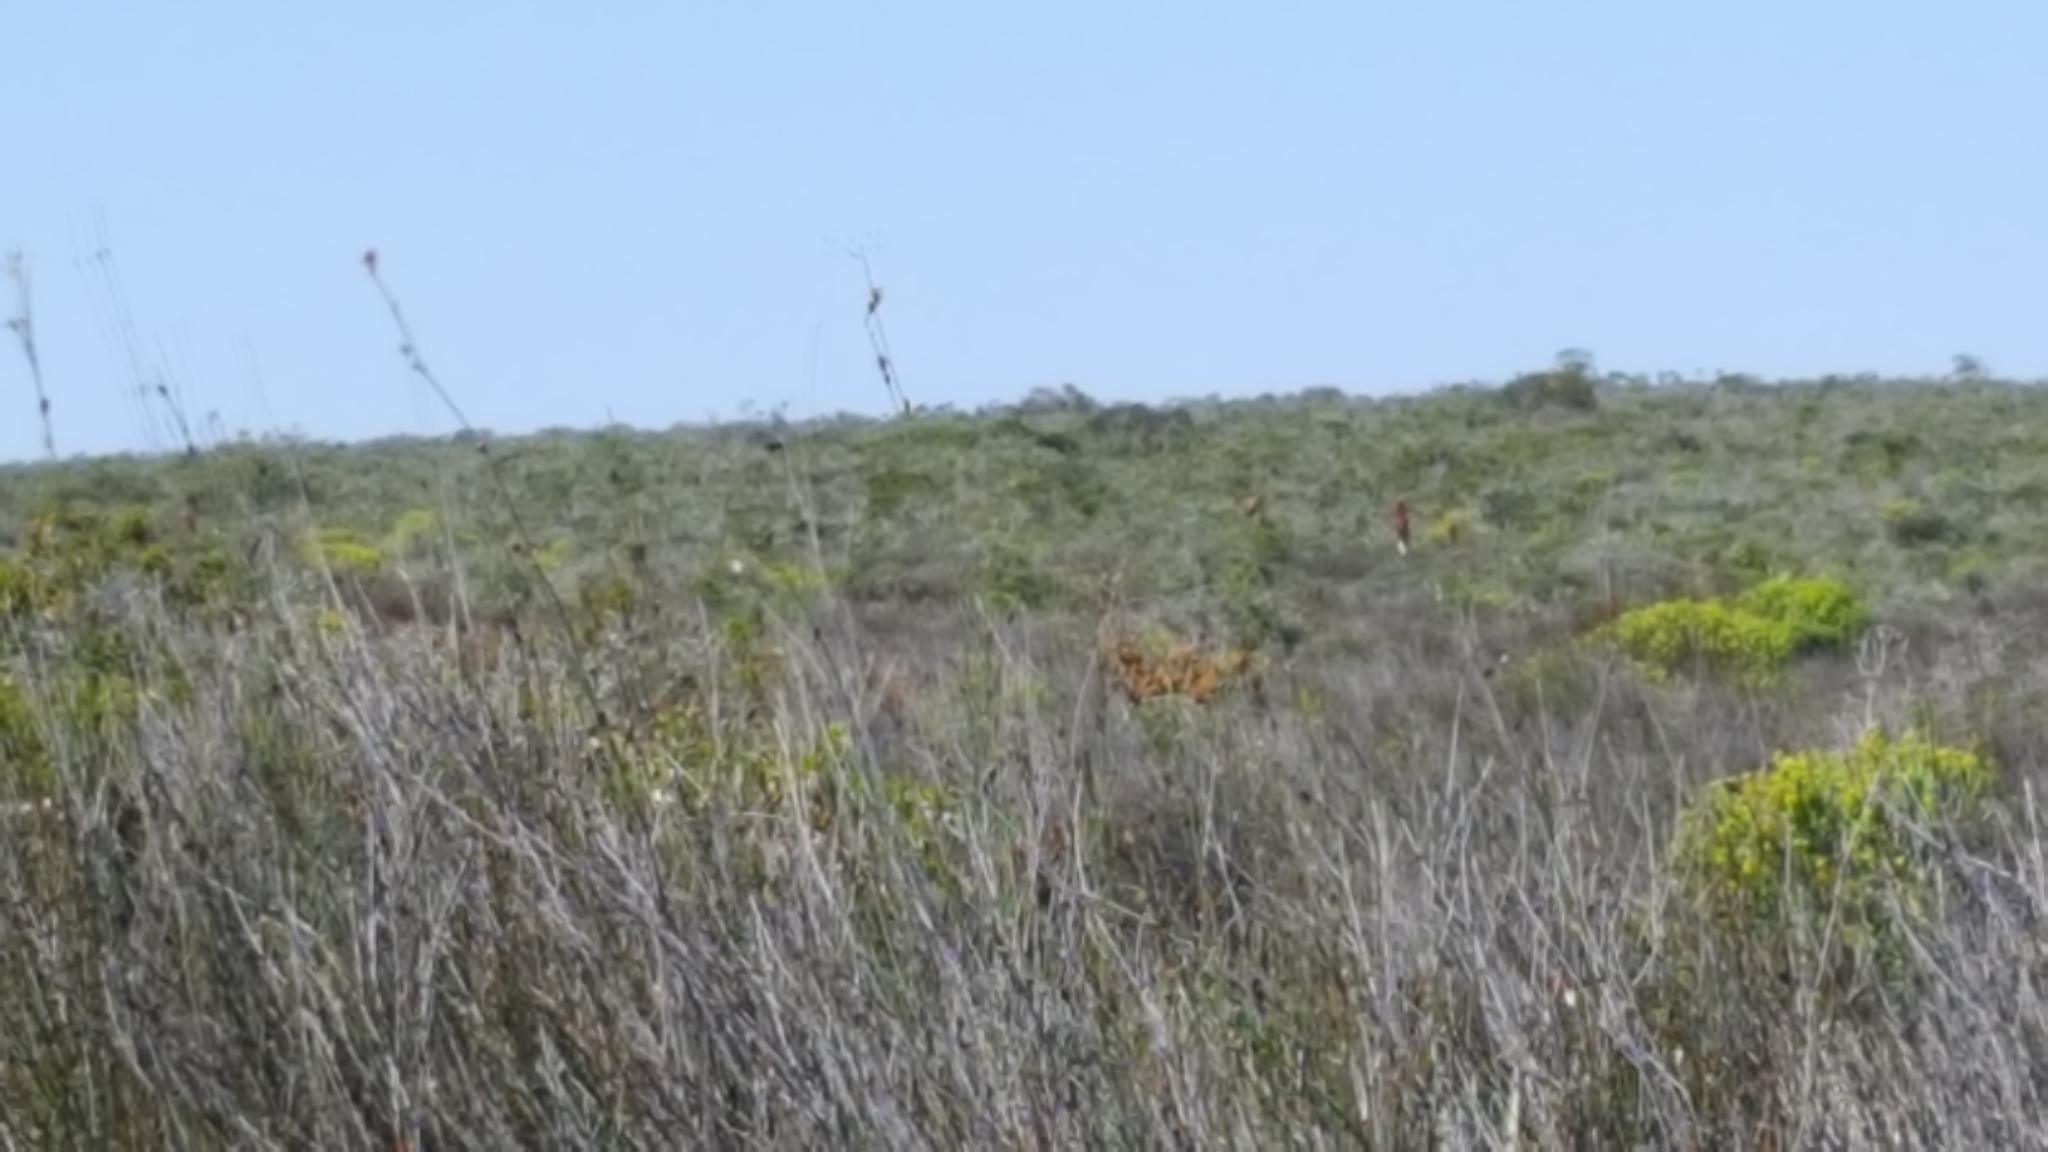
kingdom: Animalia
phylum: Chordata
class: Aves
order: Struthioniformes
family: Struthionidae
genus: Struthio
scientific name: Struthio camelus
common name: Common ostrich
